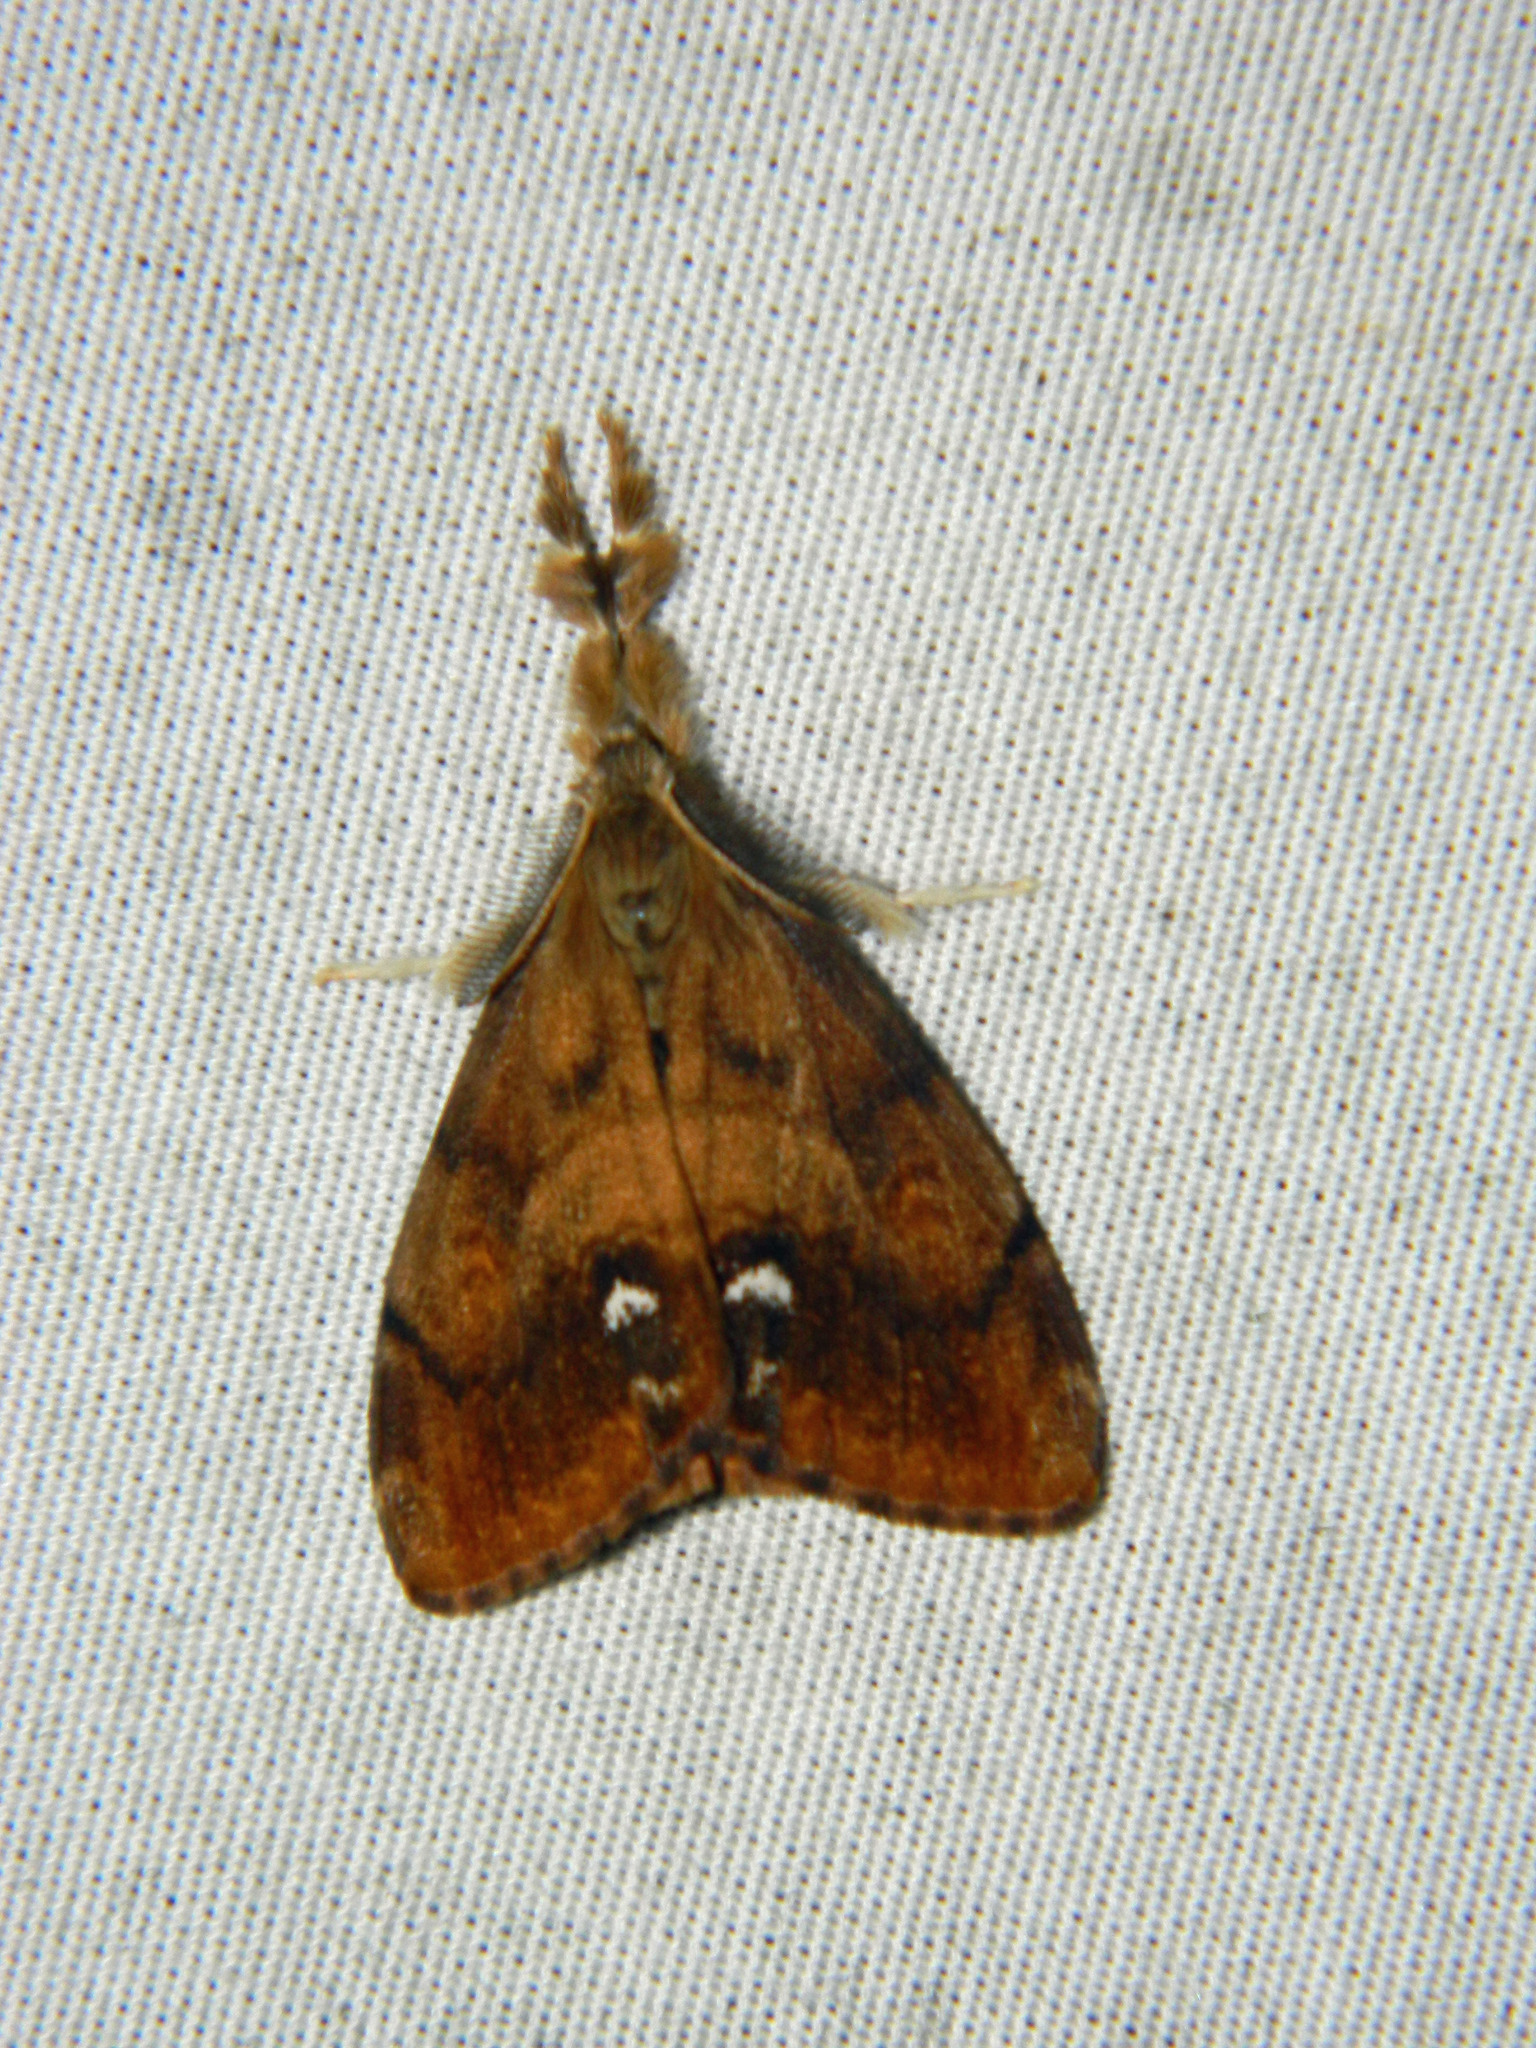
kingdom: Animalia
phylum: Arthropoda
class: Insecta
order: Lepidoptera
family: Erebidae
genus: Orgyia
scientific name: Orgyia antiqua
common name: Vapourer
